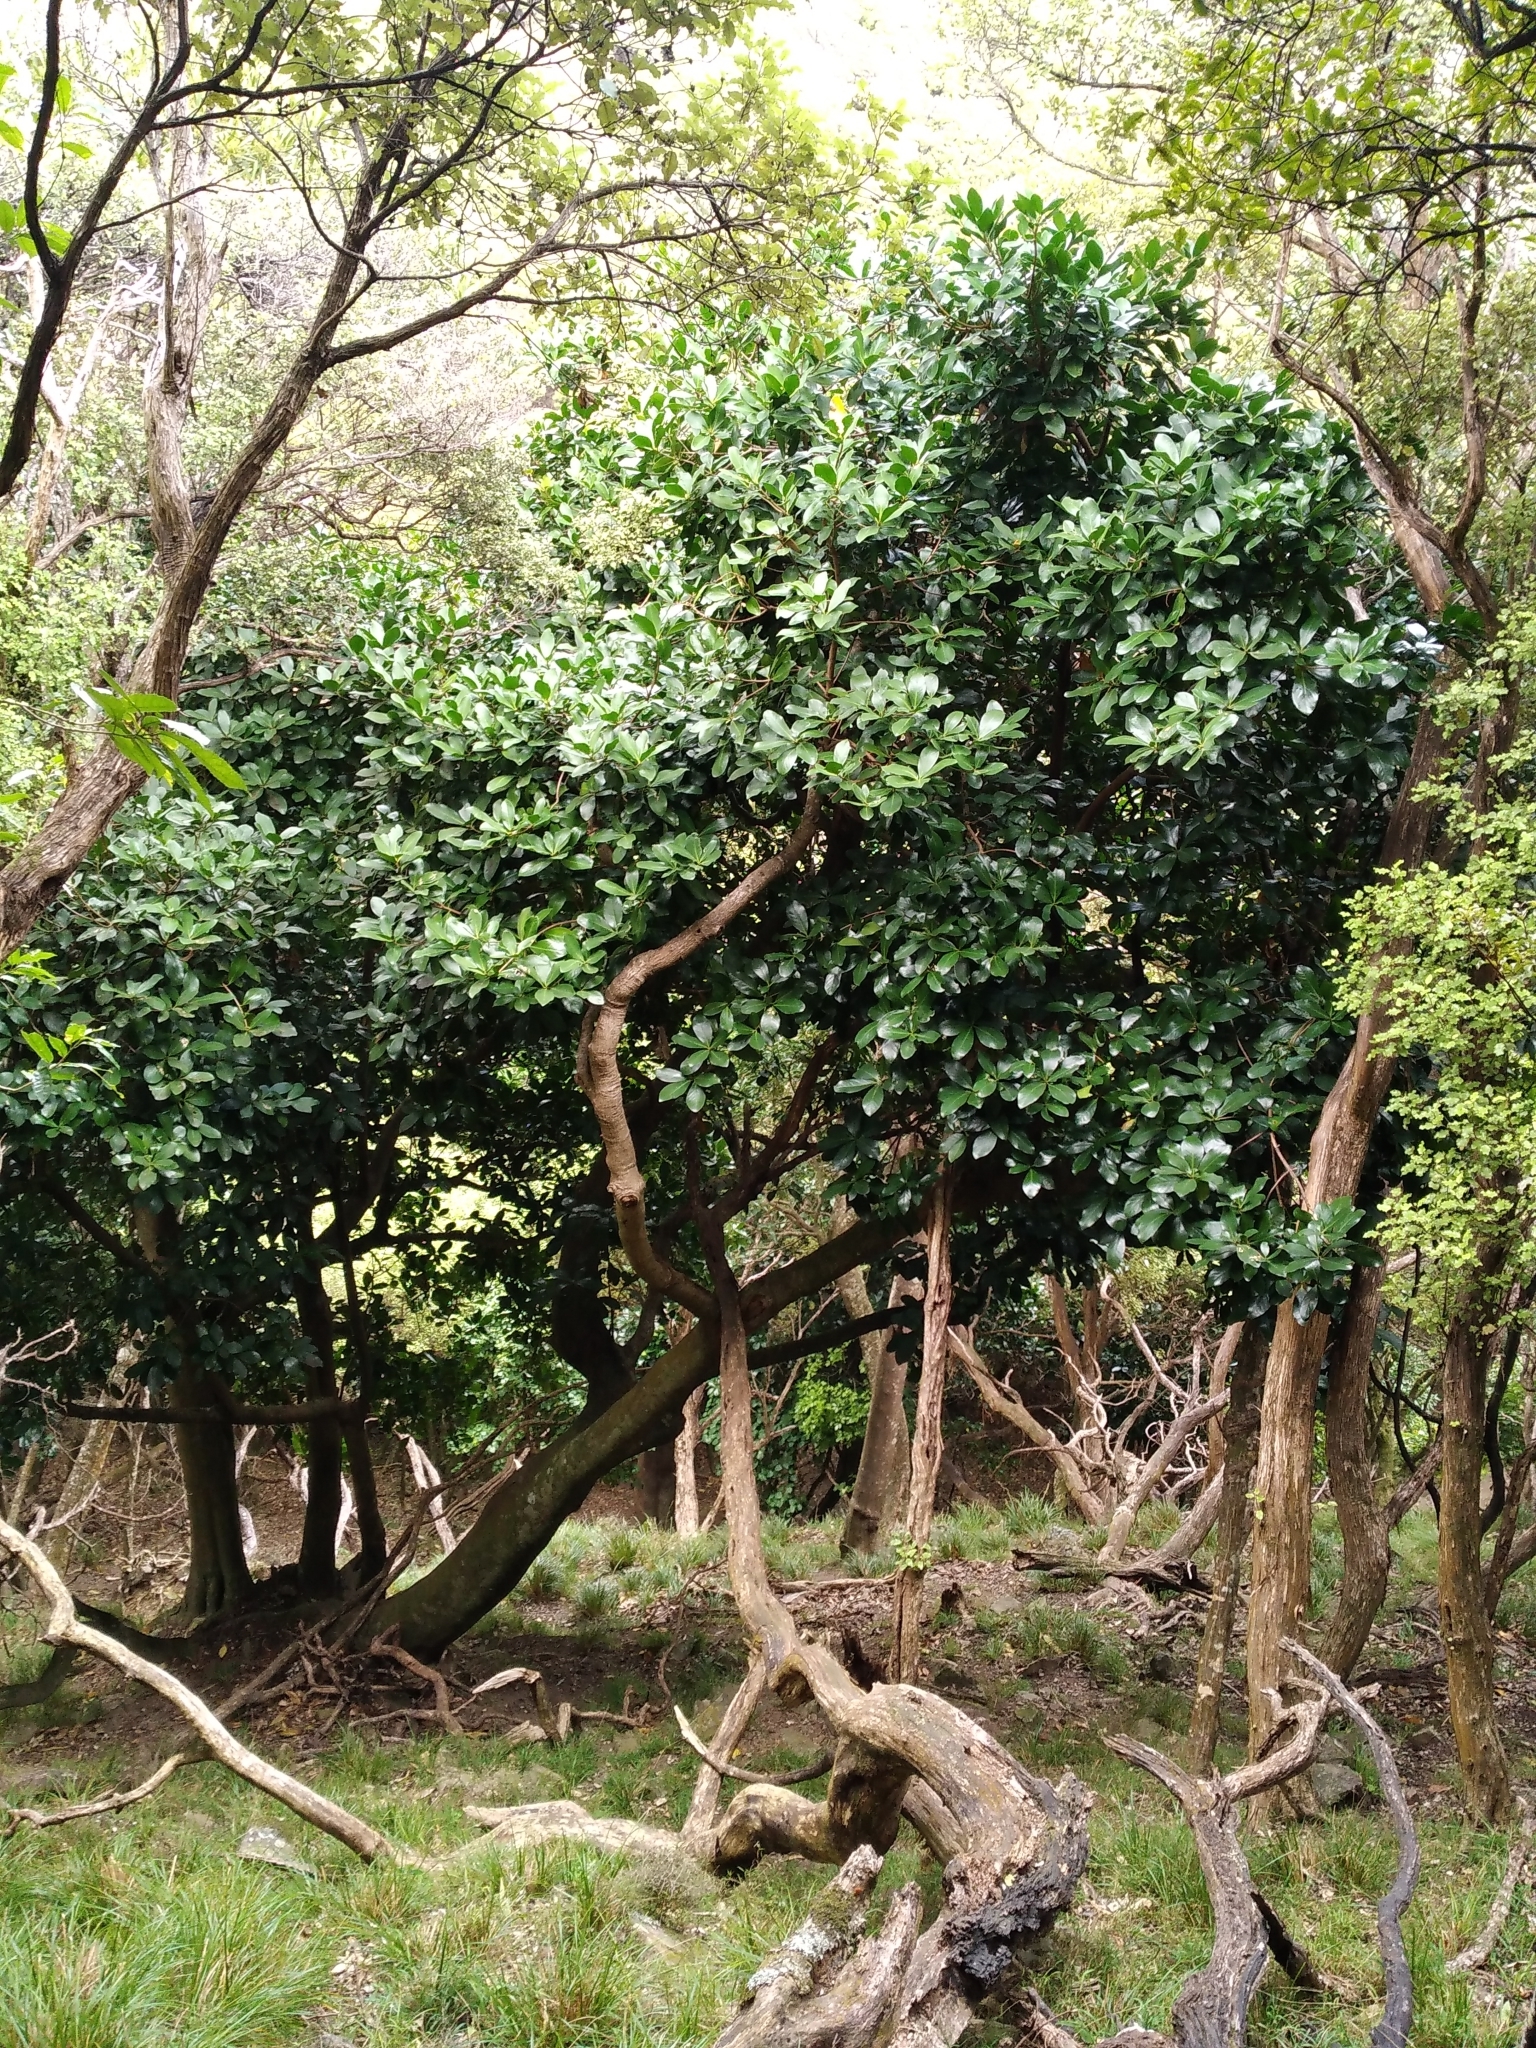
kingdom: Plantae
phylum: Tracheophyta
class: Magnoliopsida
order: Cucurbitales
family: Corynocarpaceae
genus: Corynocarpus
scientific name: Corynocarpus laevigatus
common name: New zealand laurel
